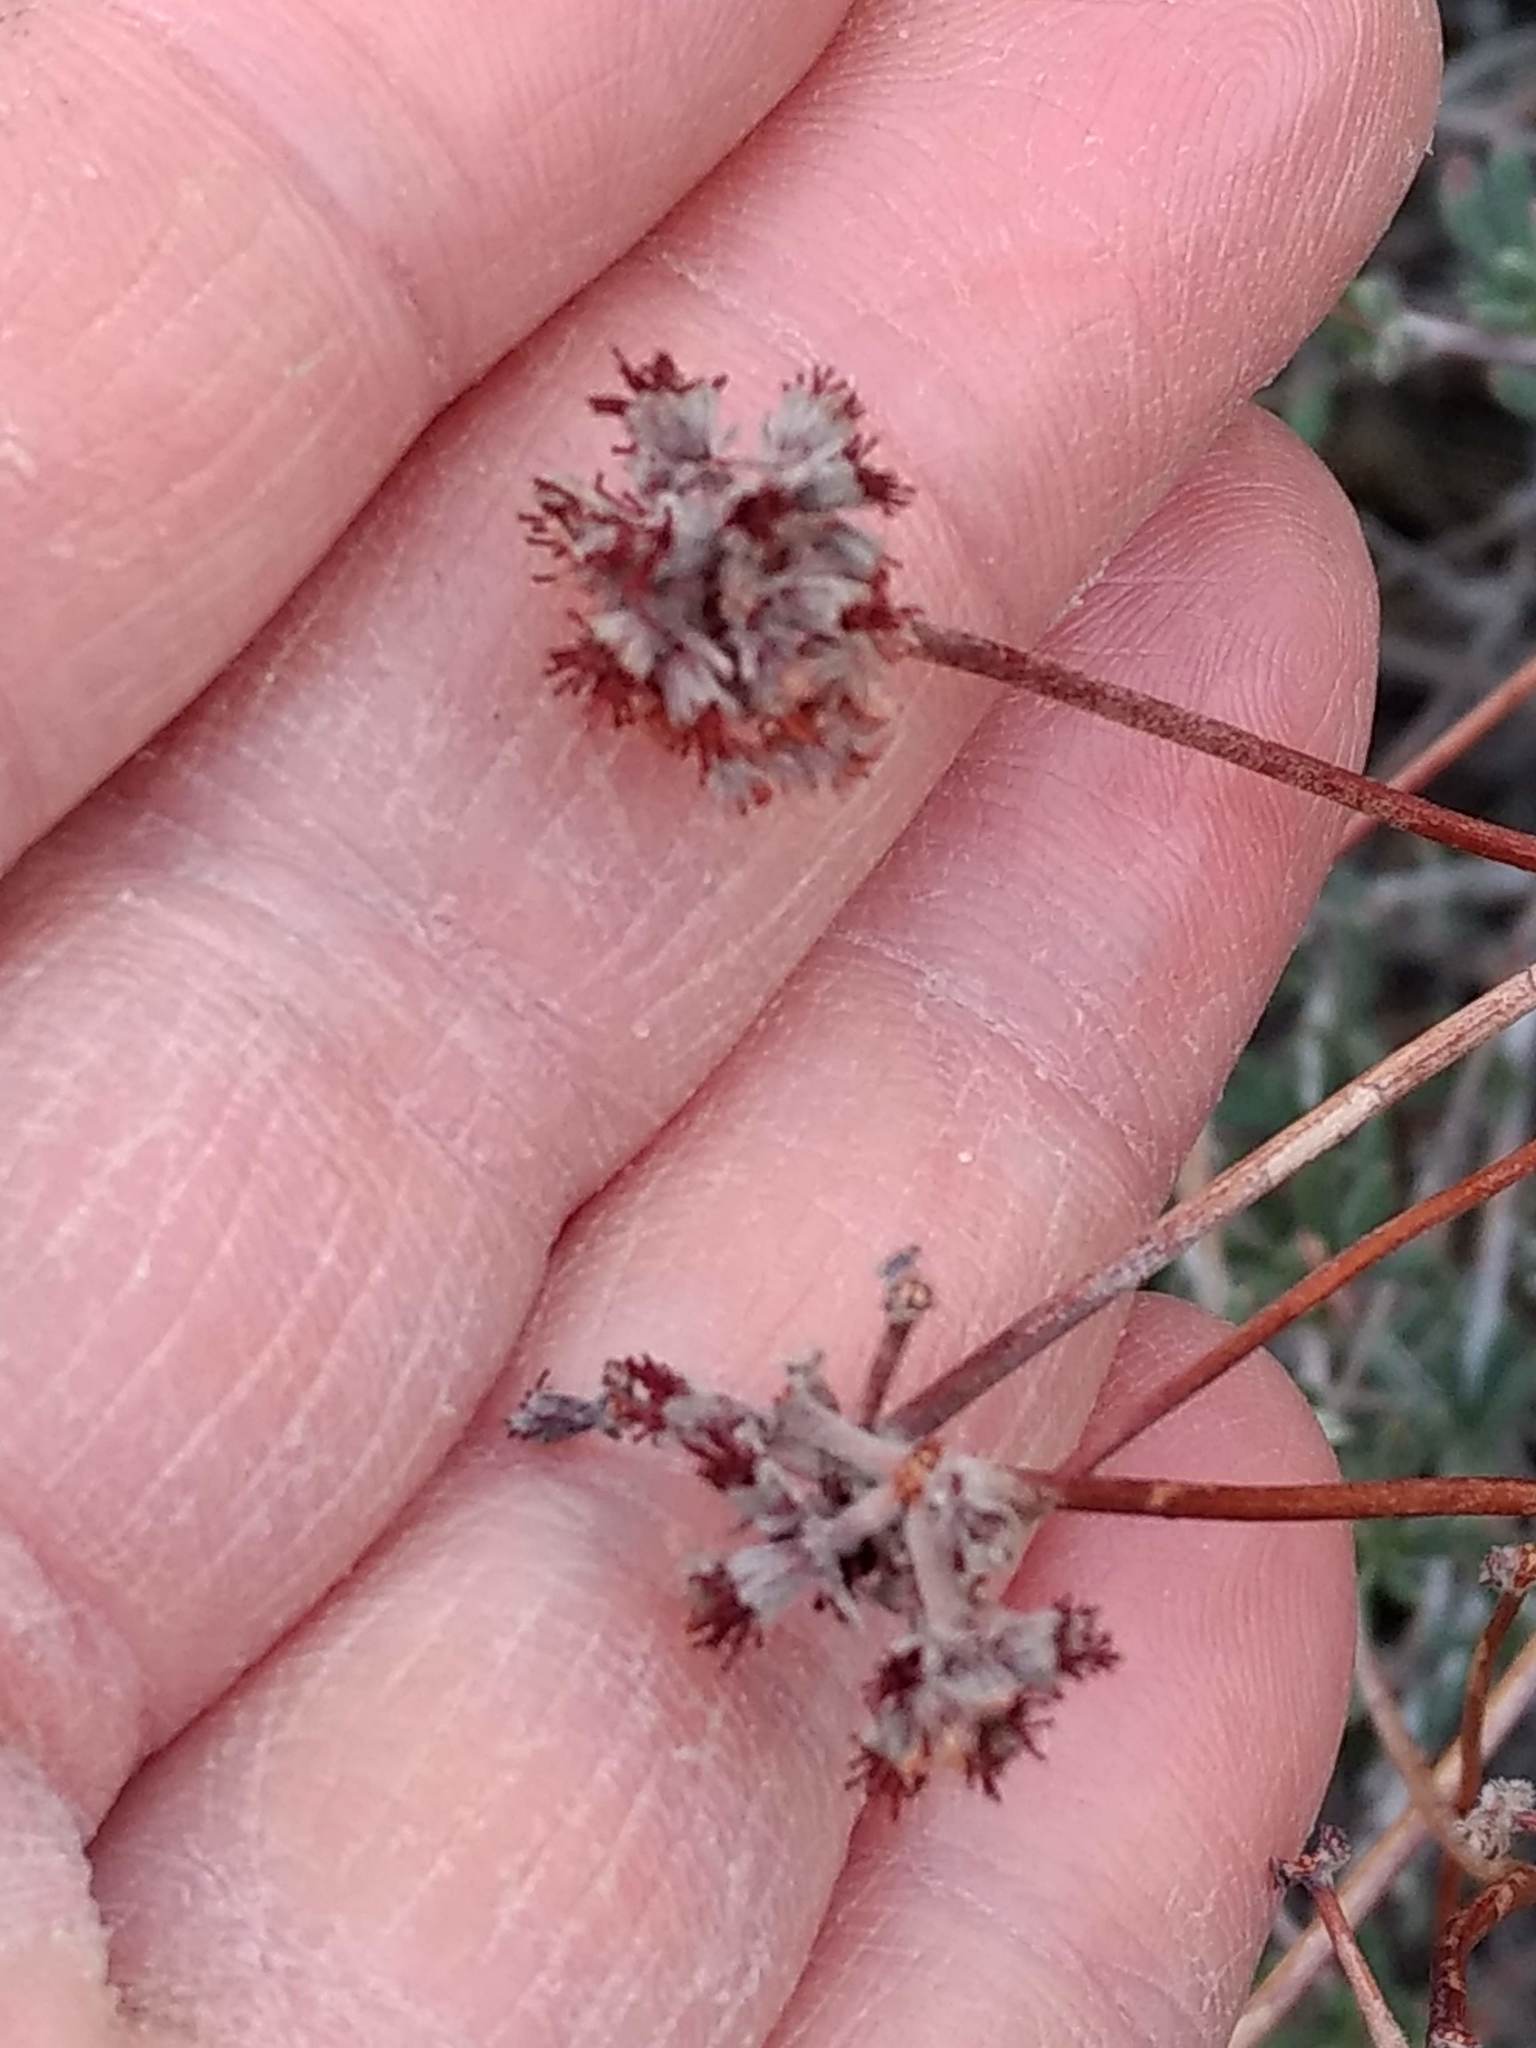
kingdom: Plantae
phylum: Tracheophyta
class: Magnoliopsida
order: Caryophyllales
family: Polygonaceae
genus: Eriogonum
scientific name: Eriogonum fasciculatum
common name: California wild buckwheat
